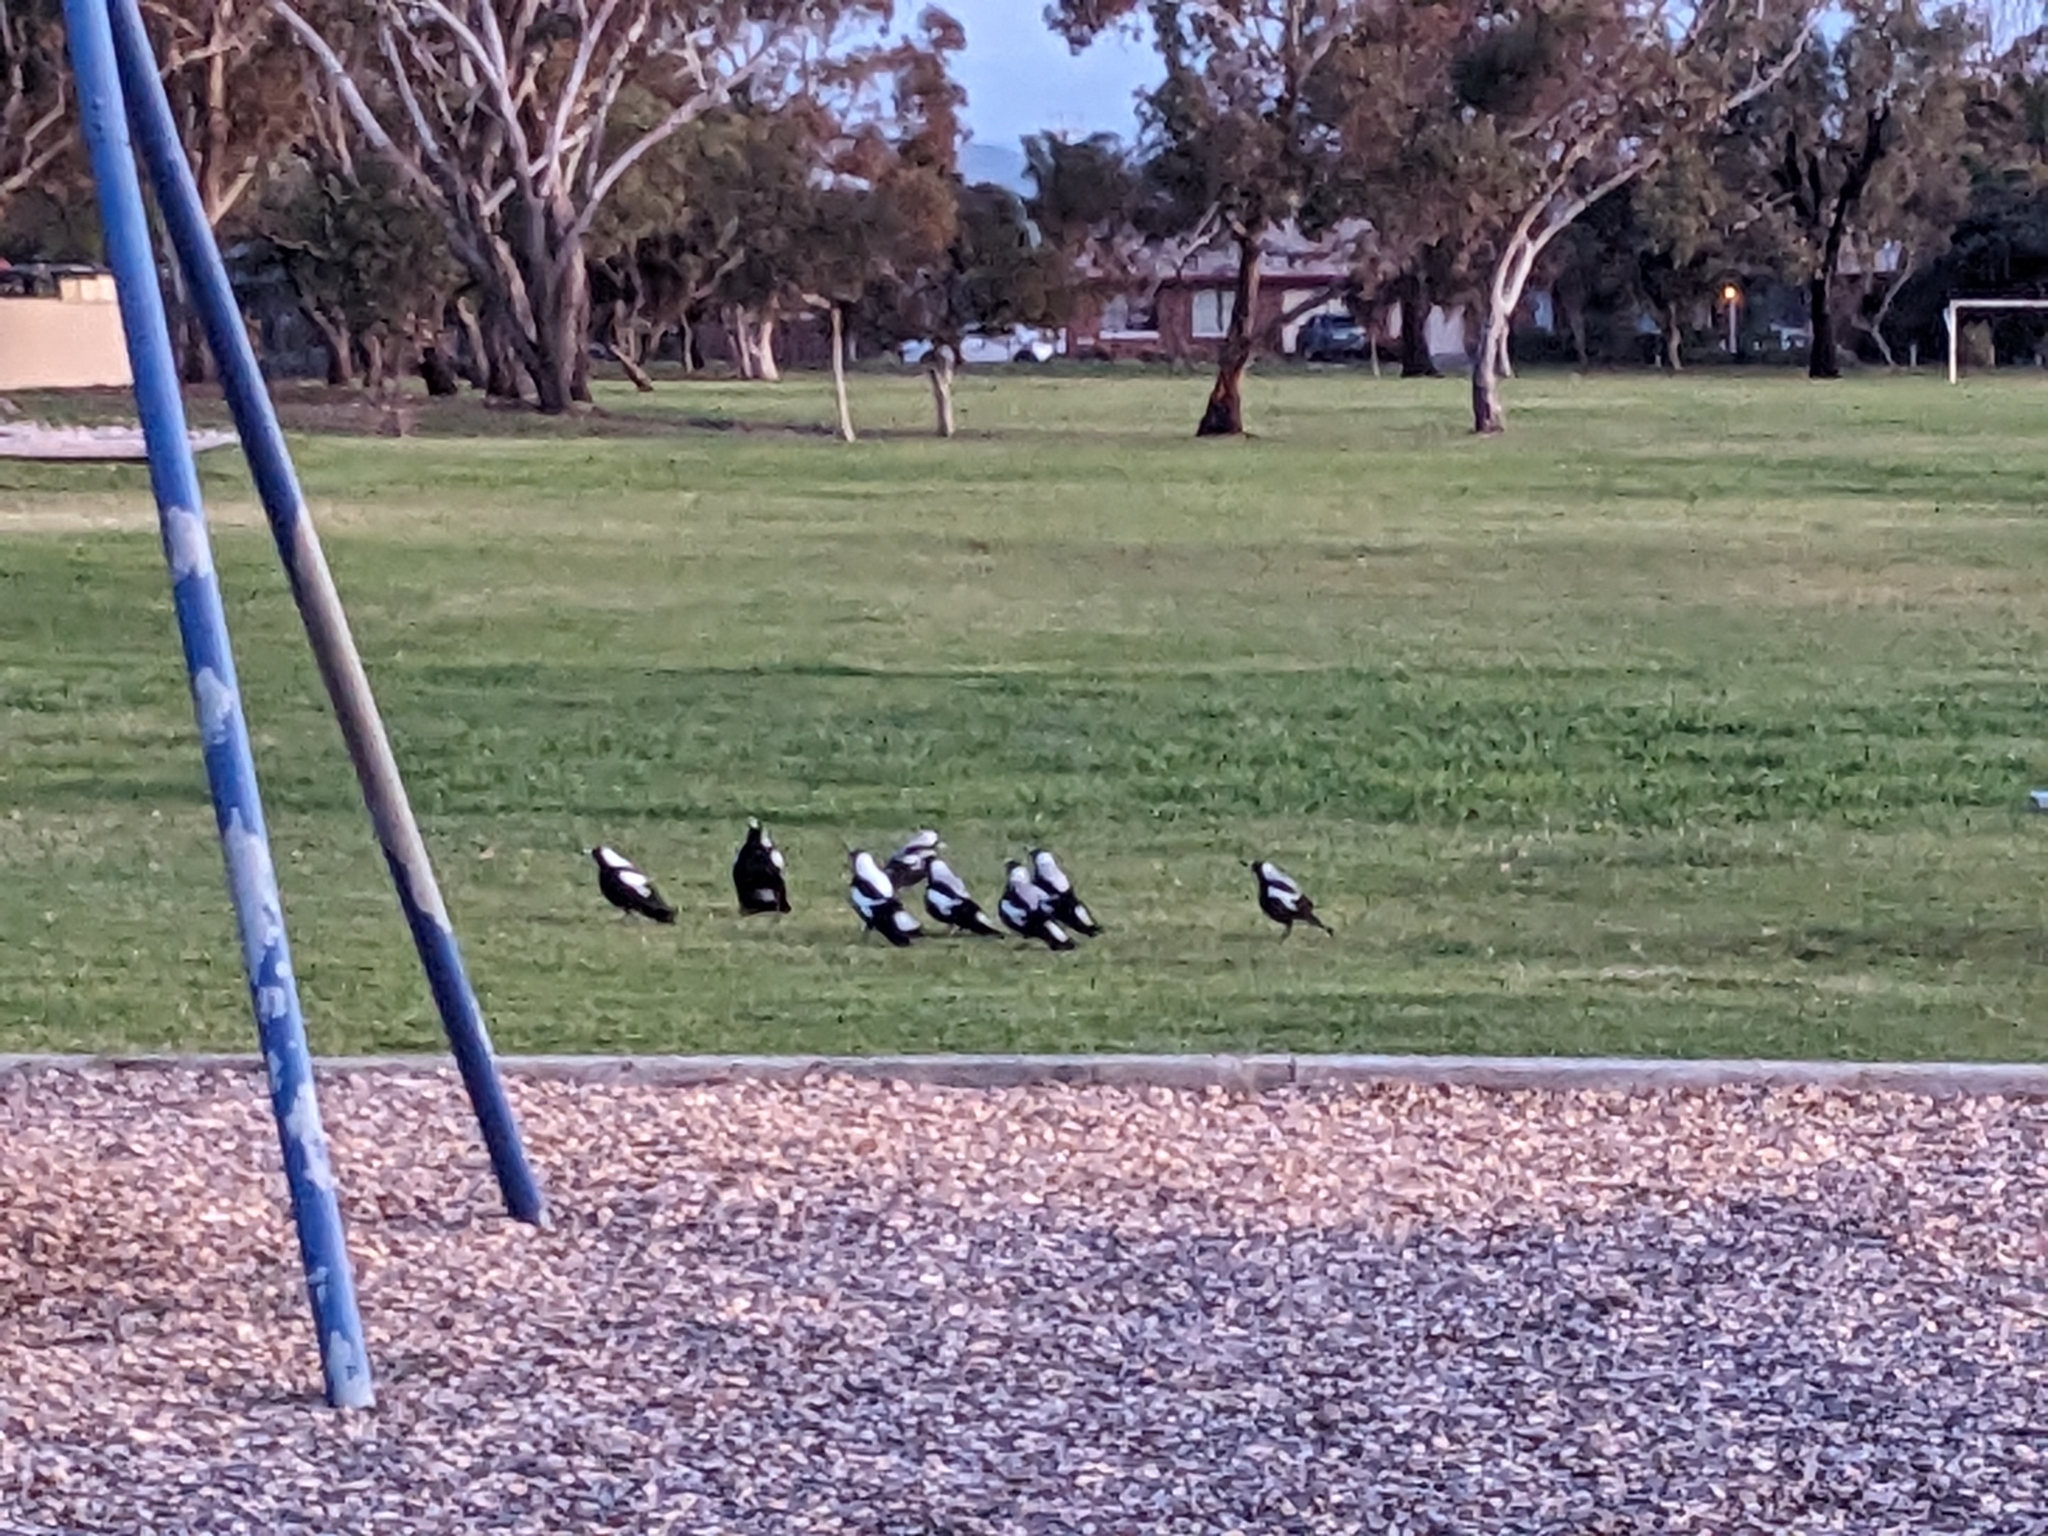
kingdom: Animalia
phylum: Chordata
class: Aves
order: Passeriformes
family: Cracticidae
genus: Gymnorhina
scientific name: Gymnorhina tibicen
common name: Australian magpie
